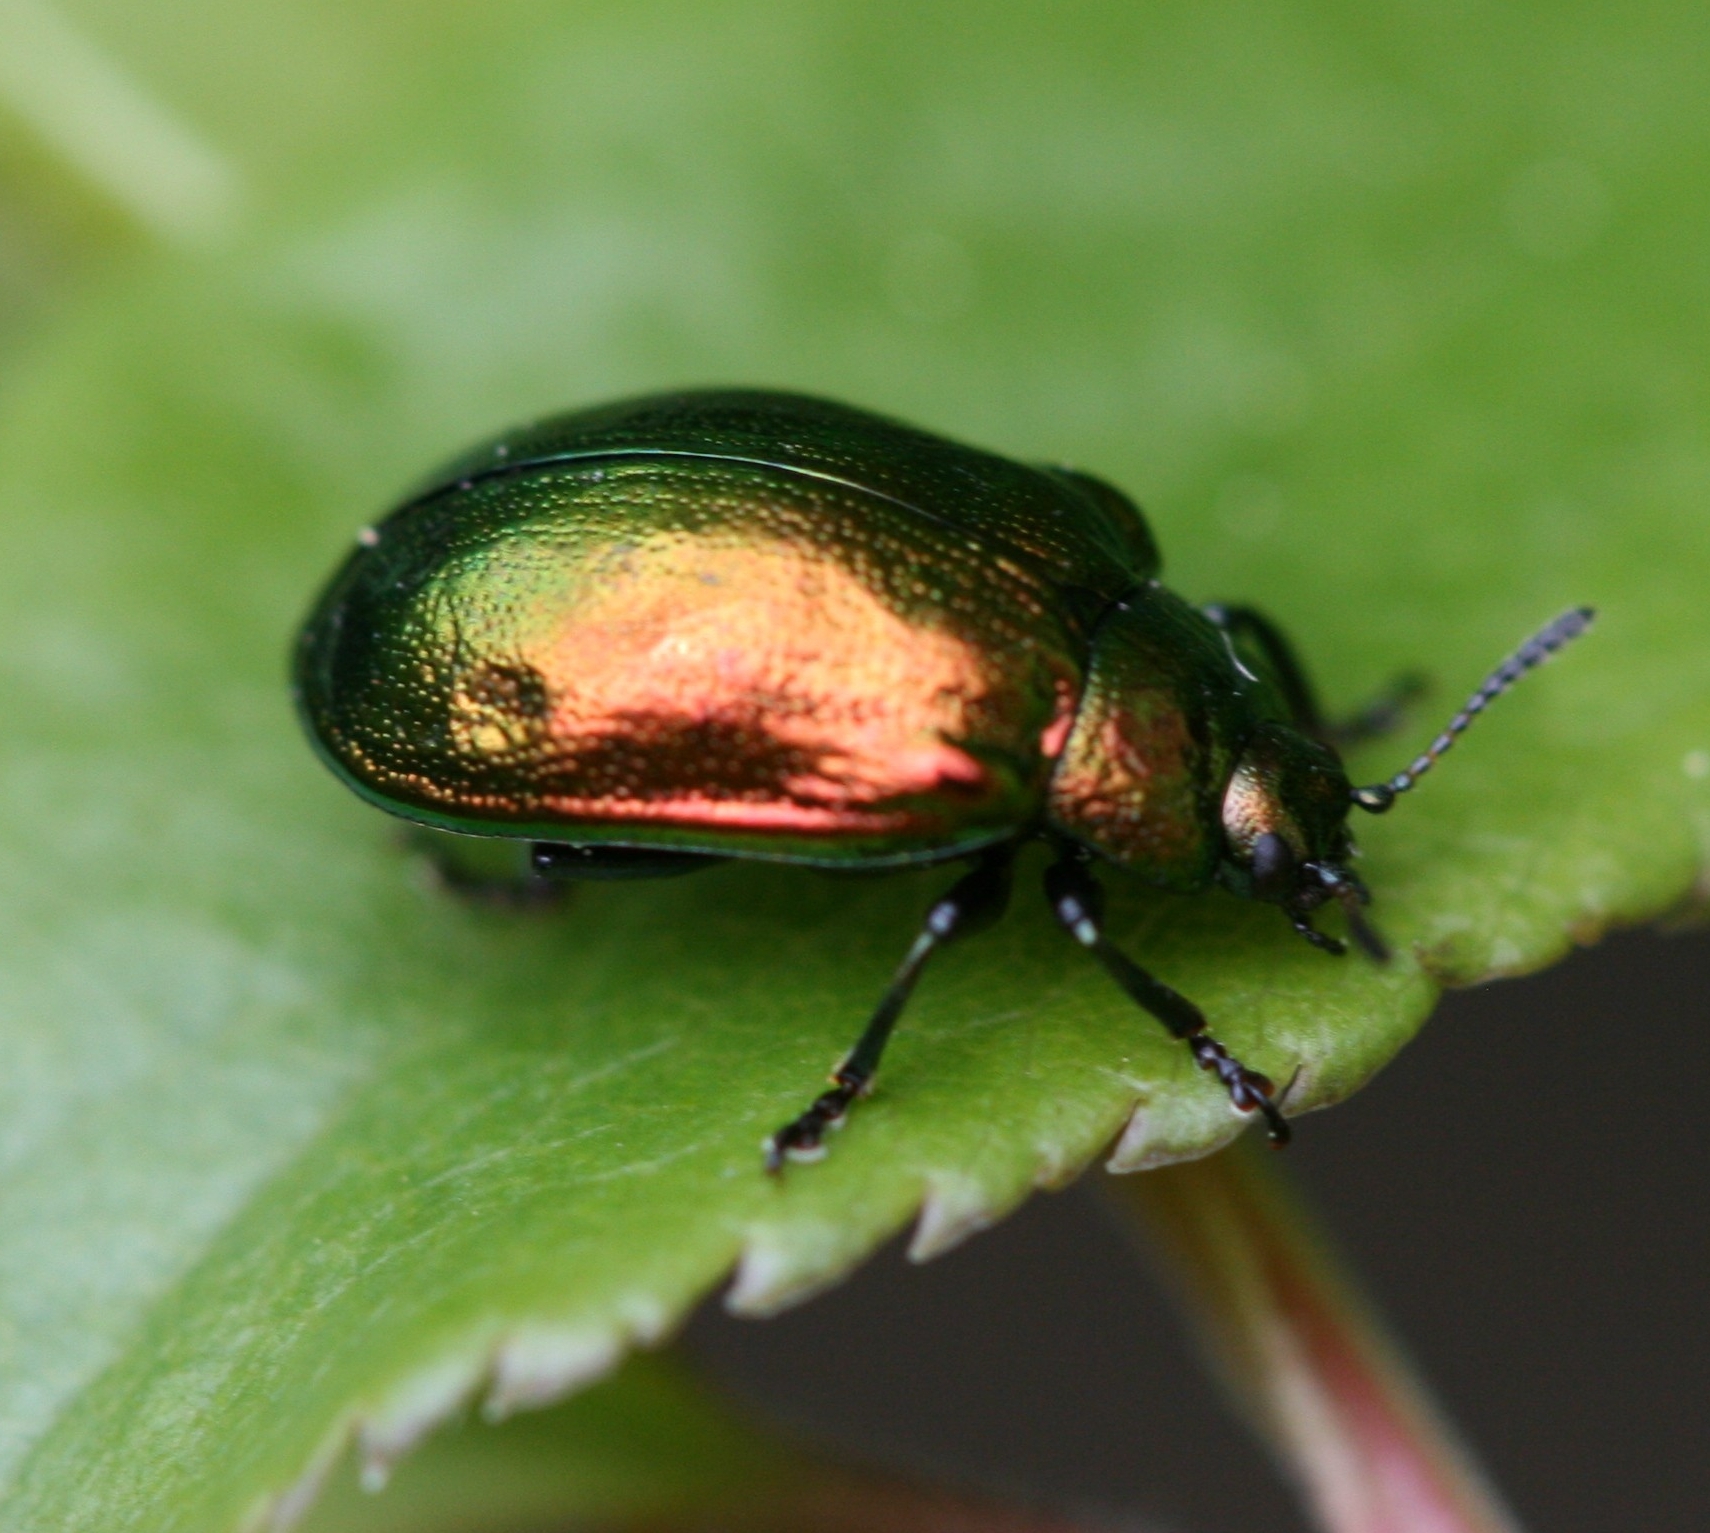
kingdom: Animalia
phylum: Arthropoda
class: Insecta
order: Coleoptera
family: Chrysomelidae
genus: Plagiosterna
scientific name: Plagiosterna aenea
